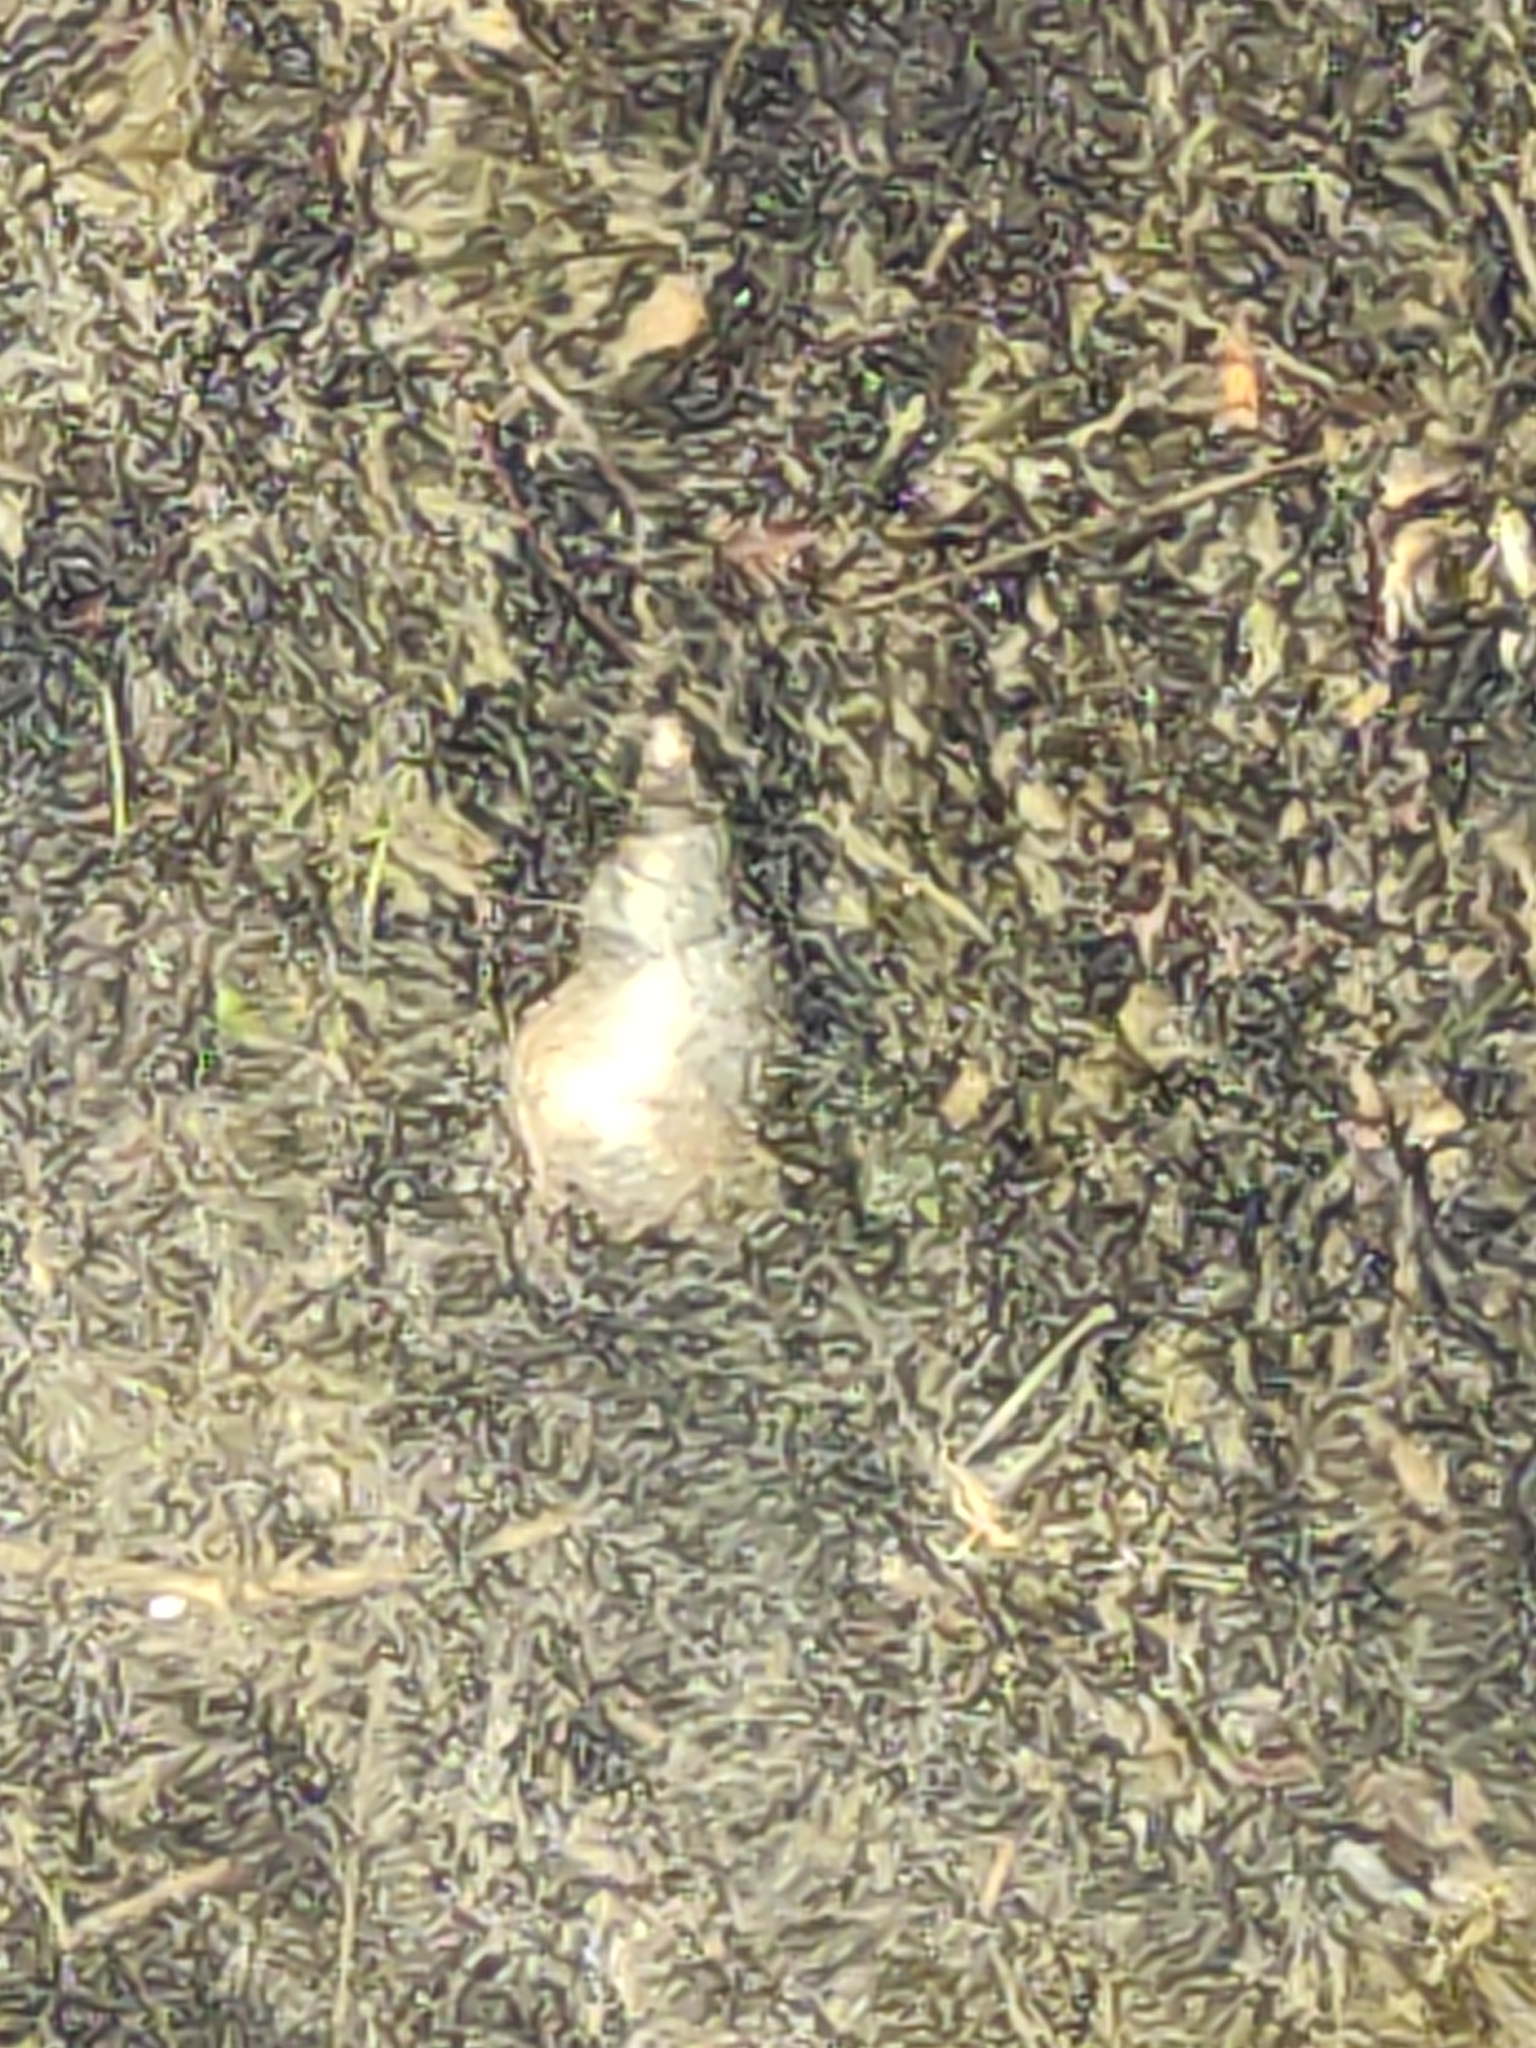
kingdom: Animalia
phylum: Mollusca
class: Gastropoda
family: Lymnaeidae
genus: Lymnaea
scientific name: Lymnaea stagnalis
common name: Great pond snail
